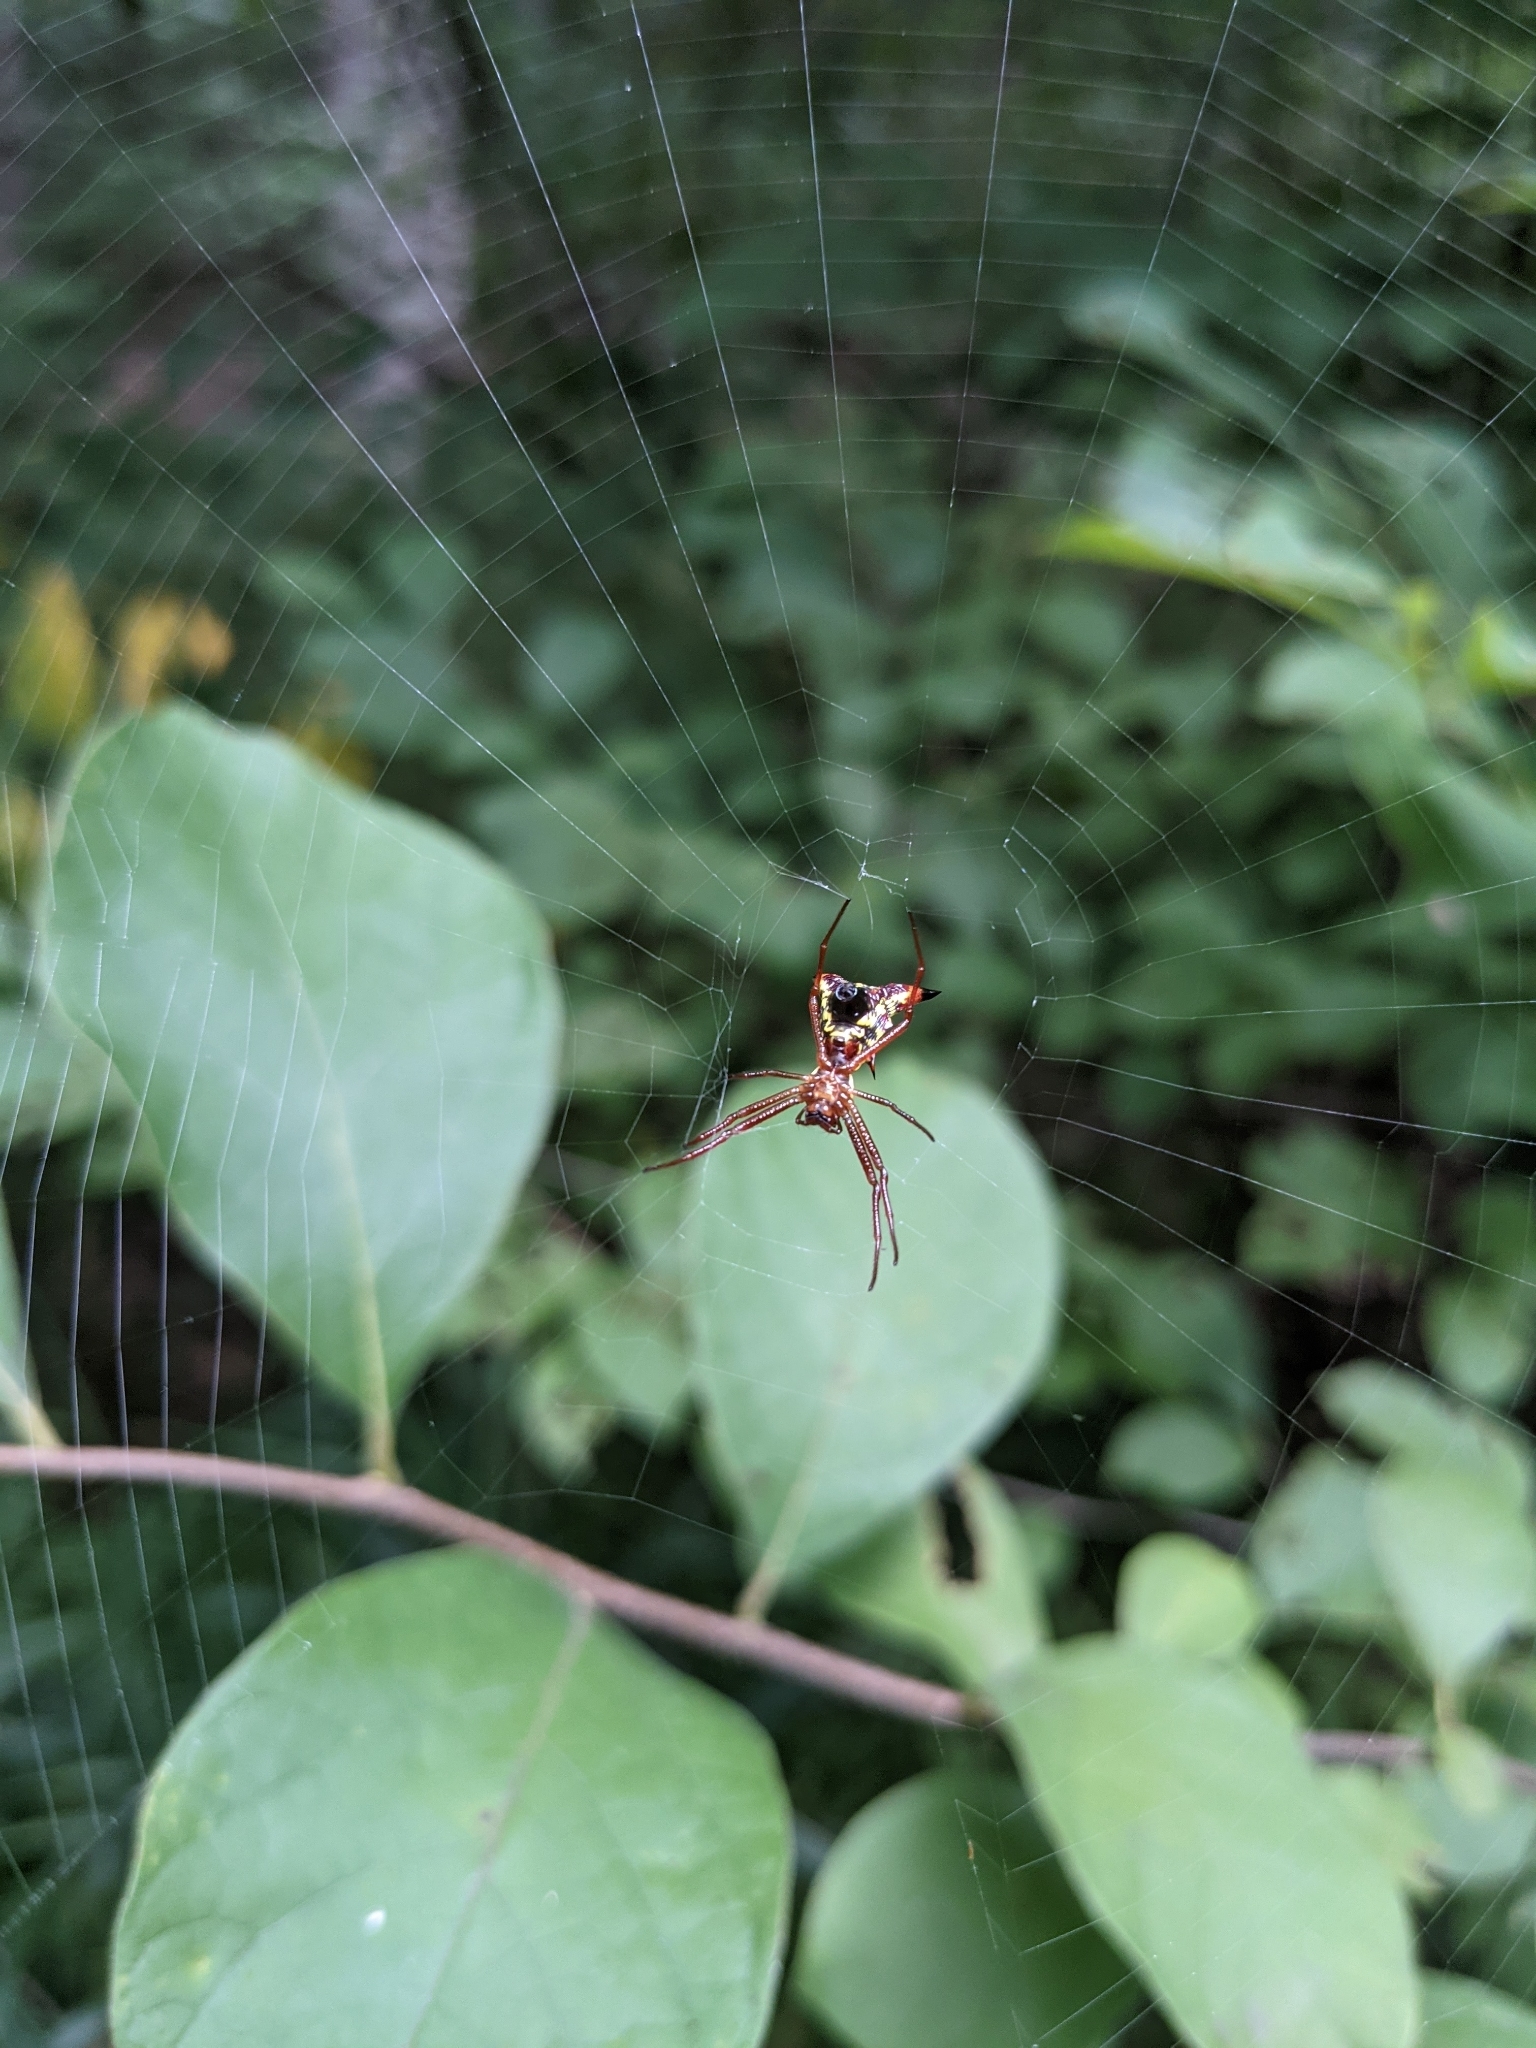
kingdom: Animalia
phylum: Arthropoda
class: Arachnida
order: Araneae
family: Araneidae
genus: Micrathena
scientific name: Micrathena sagittata
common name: Orb weavers
